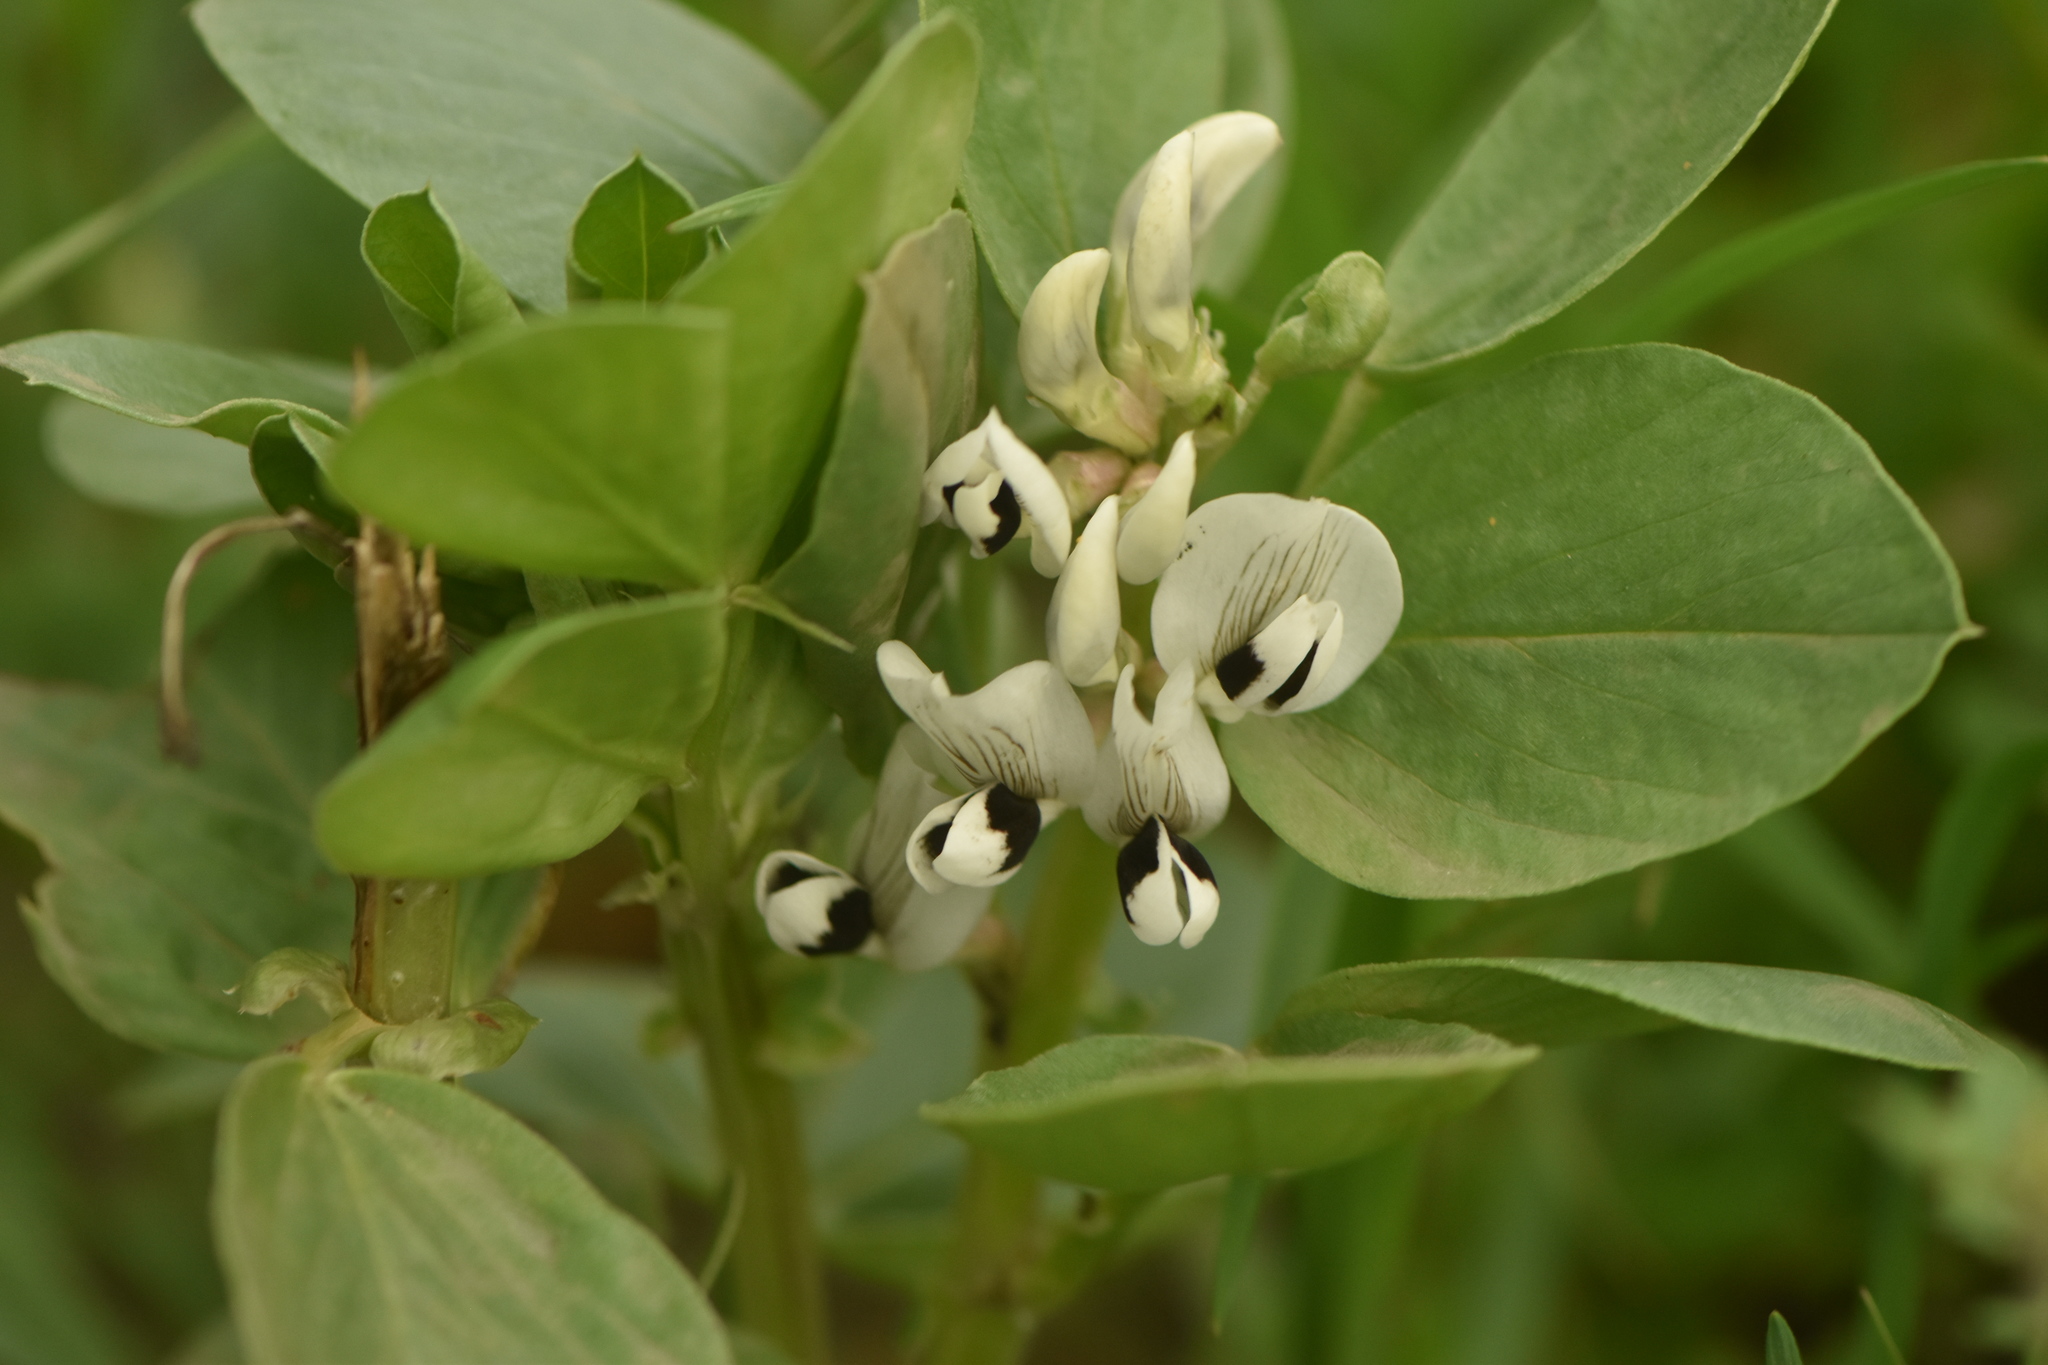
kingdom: Plantae
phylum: Tracheophyta
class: Magnoliopsida
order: Fabales
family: Fabaceae
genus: Vicia
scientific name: Vicia faba
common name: Broad bean
